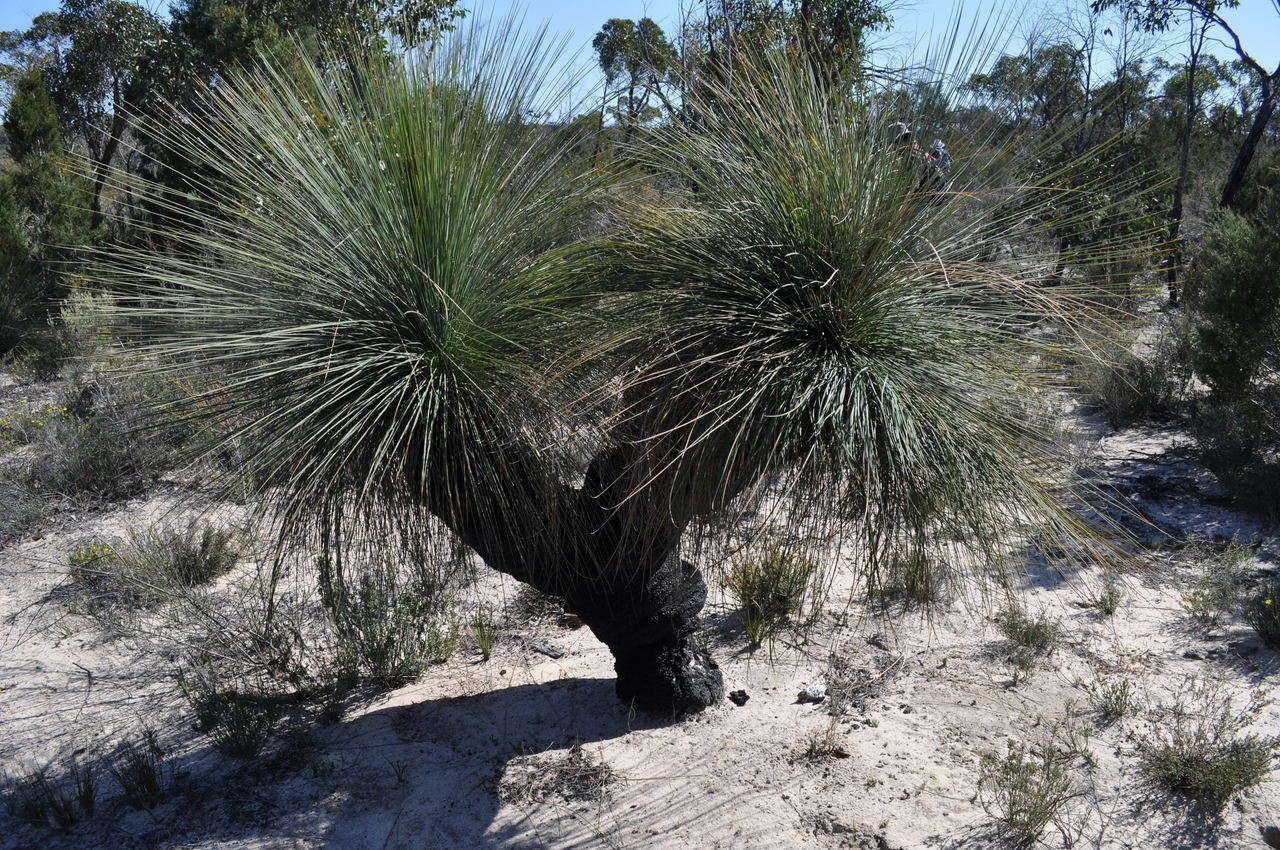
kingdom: Plantae
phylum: Tracheophyta
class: Liliopsida
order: Asparagales
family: Asphodelaceae
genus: Xanthorrhoea
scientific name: Xanthorrhoea australis
